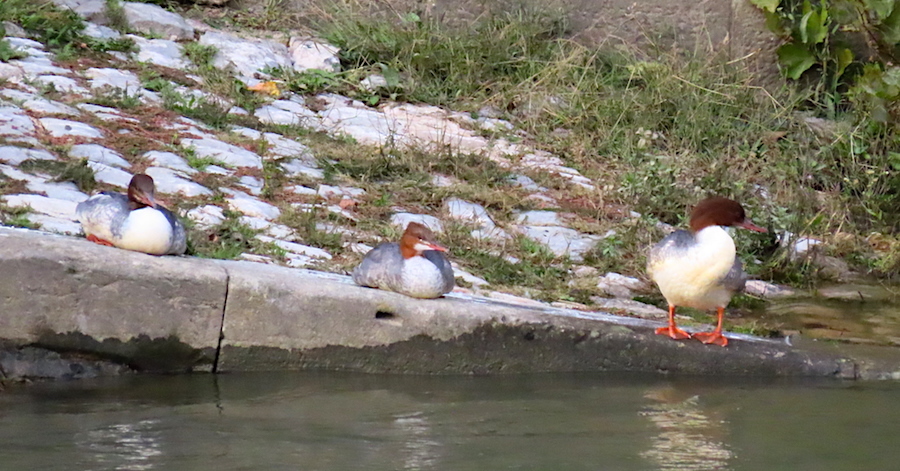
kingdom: Animalia
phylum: Chordata
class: Aves
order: Anseriformes
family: Anatidae
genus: Mergus
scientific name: Mergus merganser
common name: Common merganser
